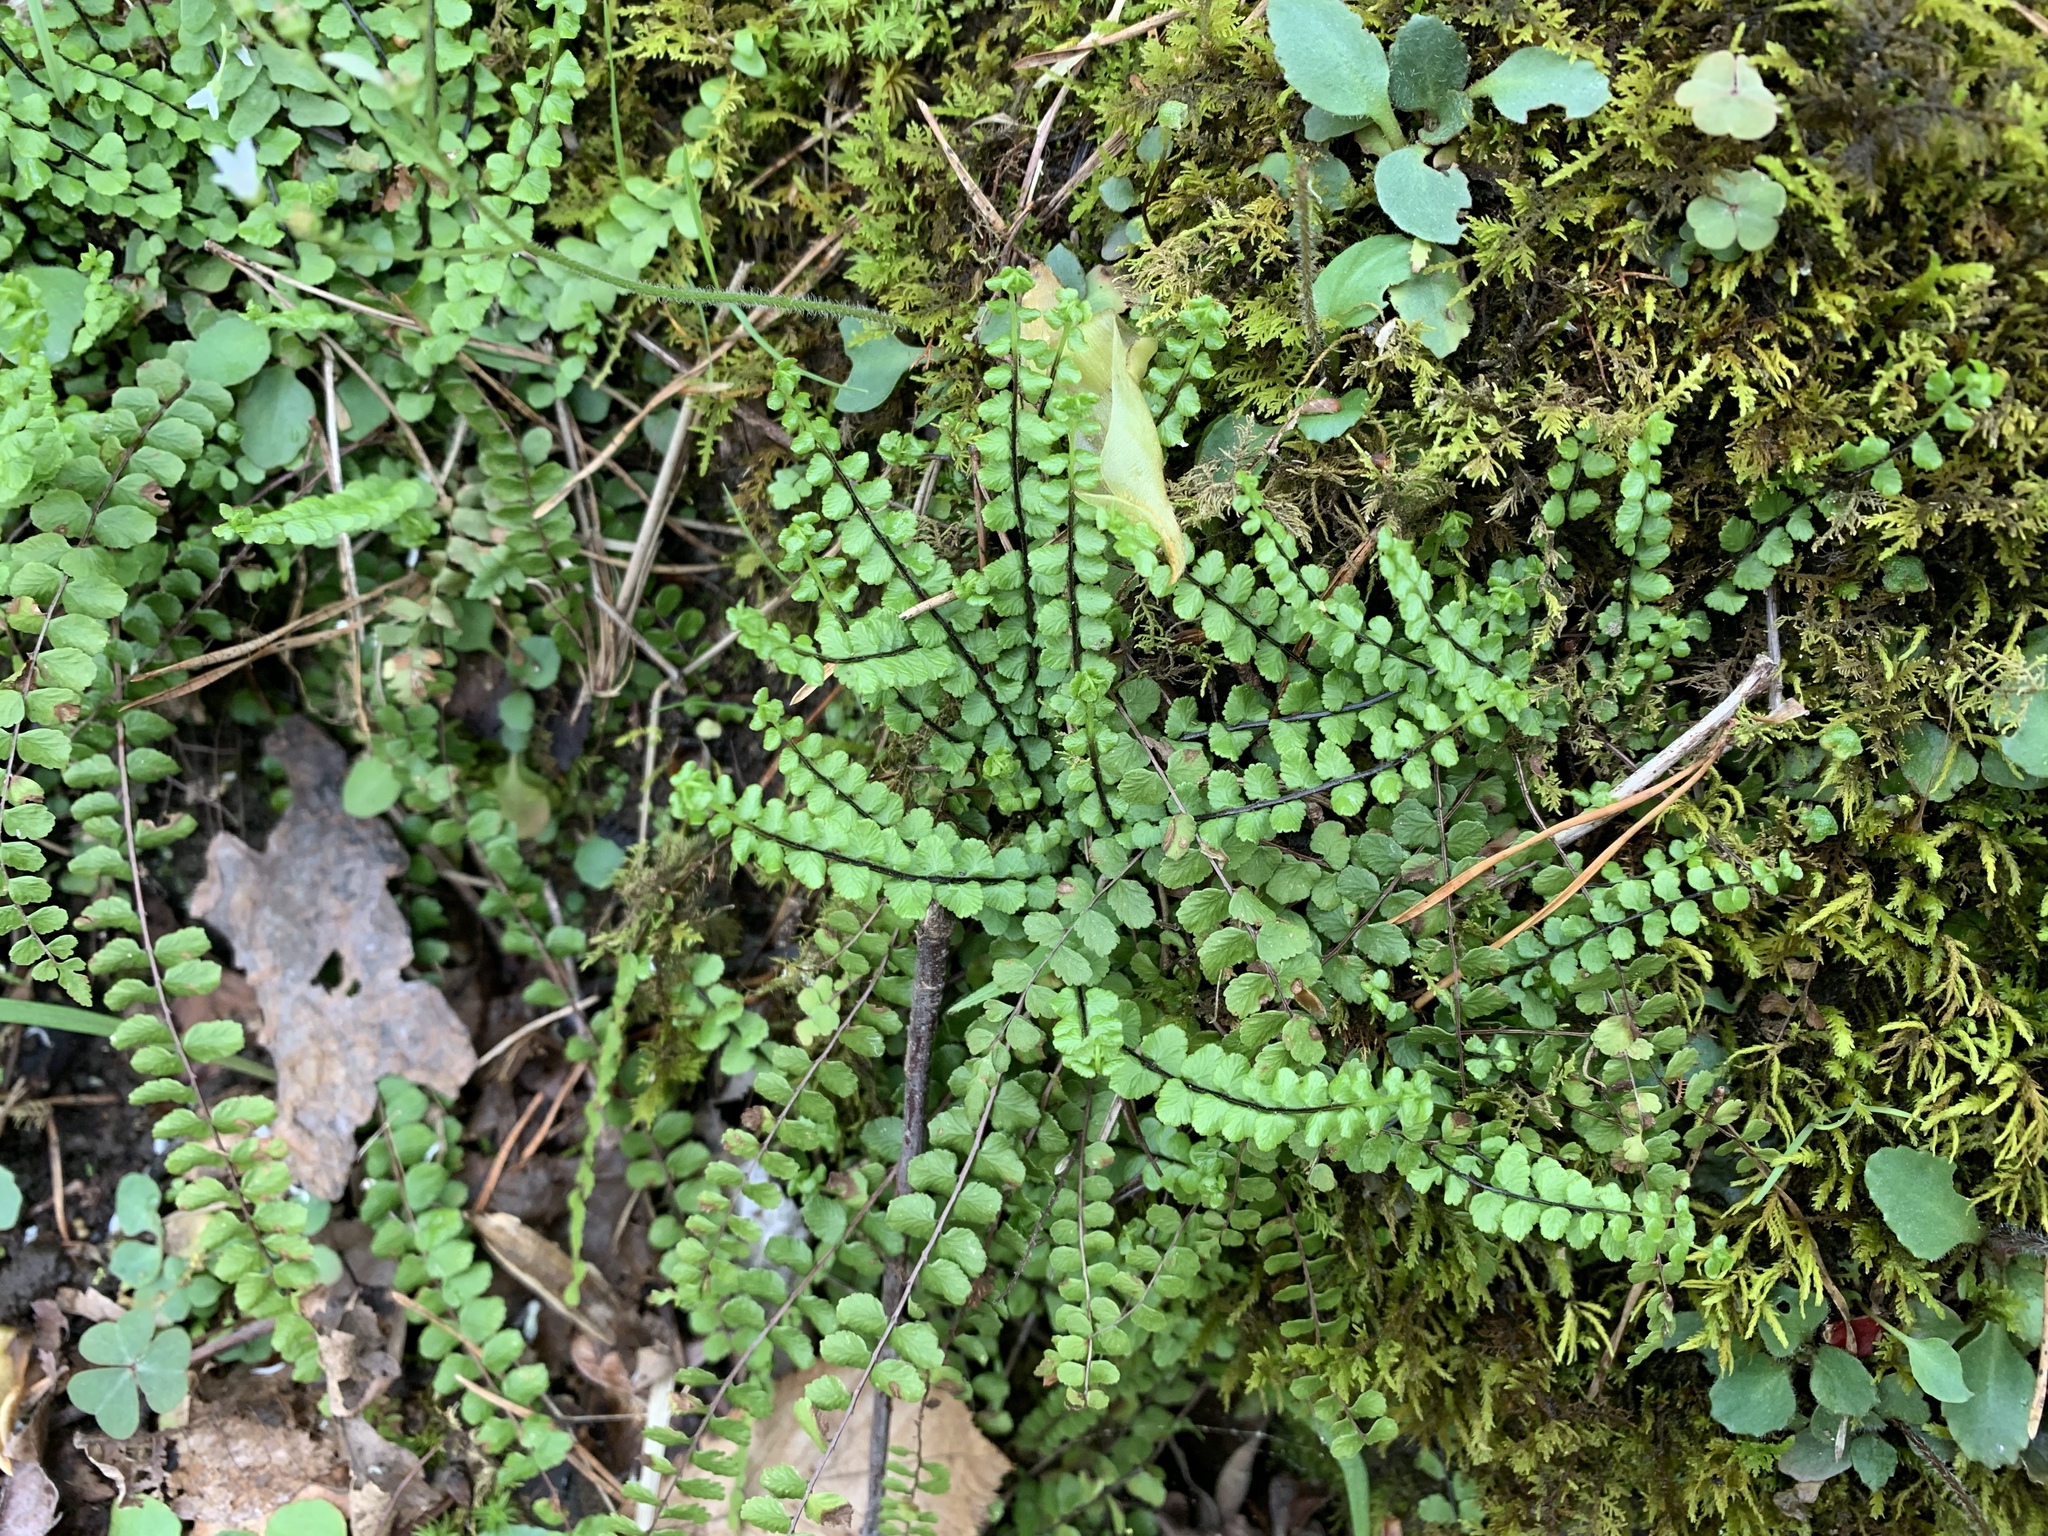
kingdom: Plantae
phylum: Tracheophyta
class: Polypodiopsida
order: Polypodiales
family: Aspleniaceae
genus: Asplenium
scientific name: Asplenium trichomanes
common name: Maidenhair spleenwort
